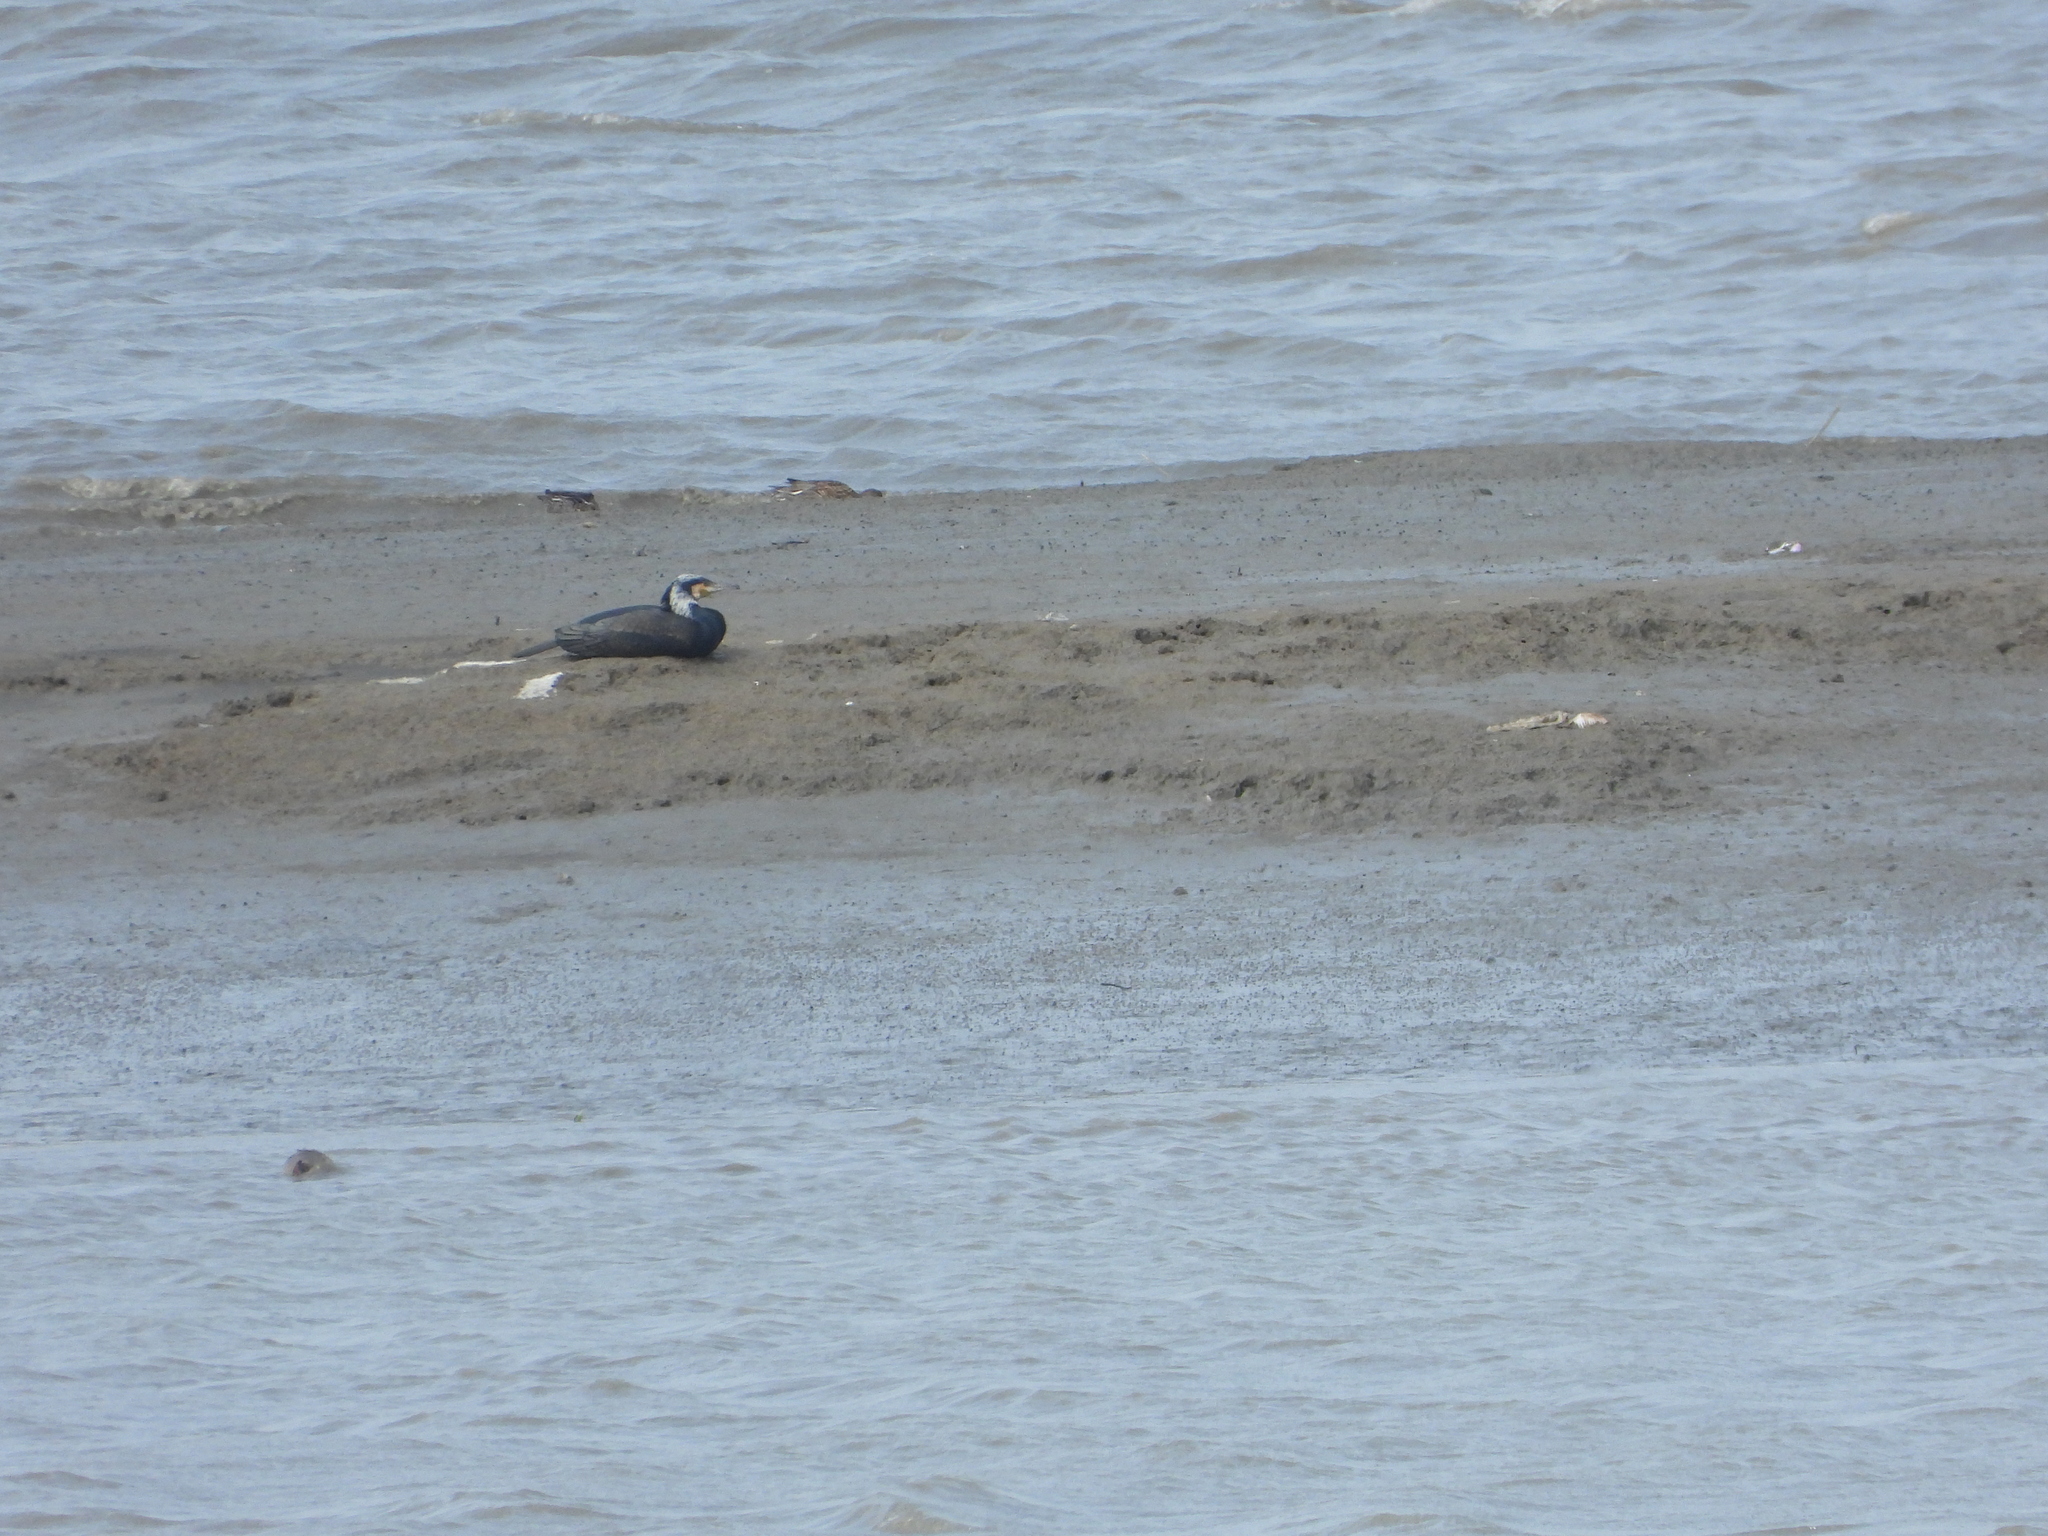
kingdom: Animalia
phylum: Chordata
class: Aves
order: Suliformes
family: Phalacrocoracidae
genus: Phalacrocorax
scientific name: Phalacrocorax carbo
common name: Great cormorant
